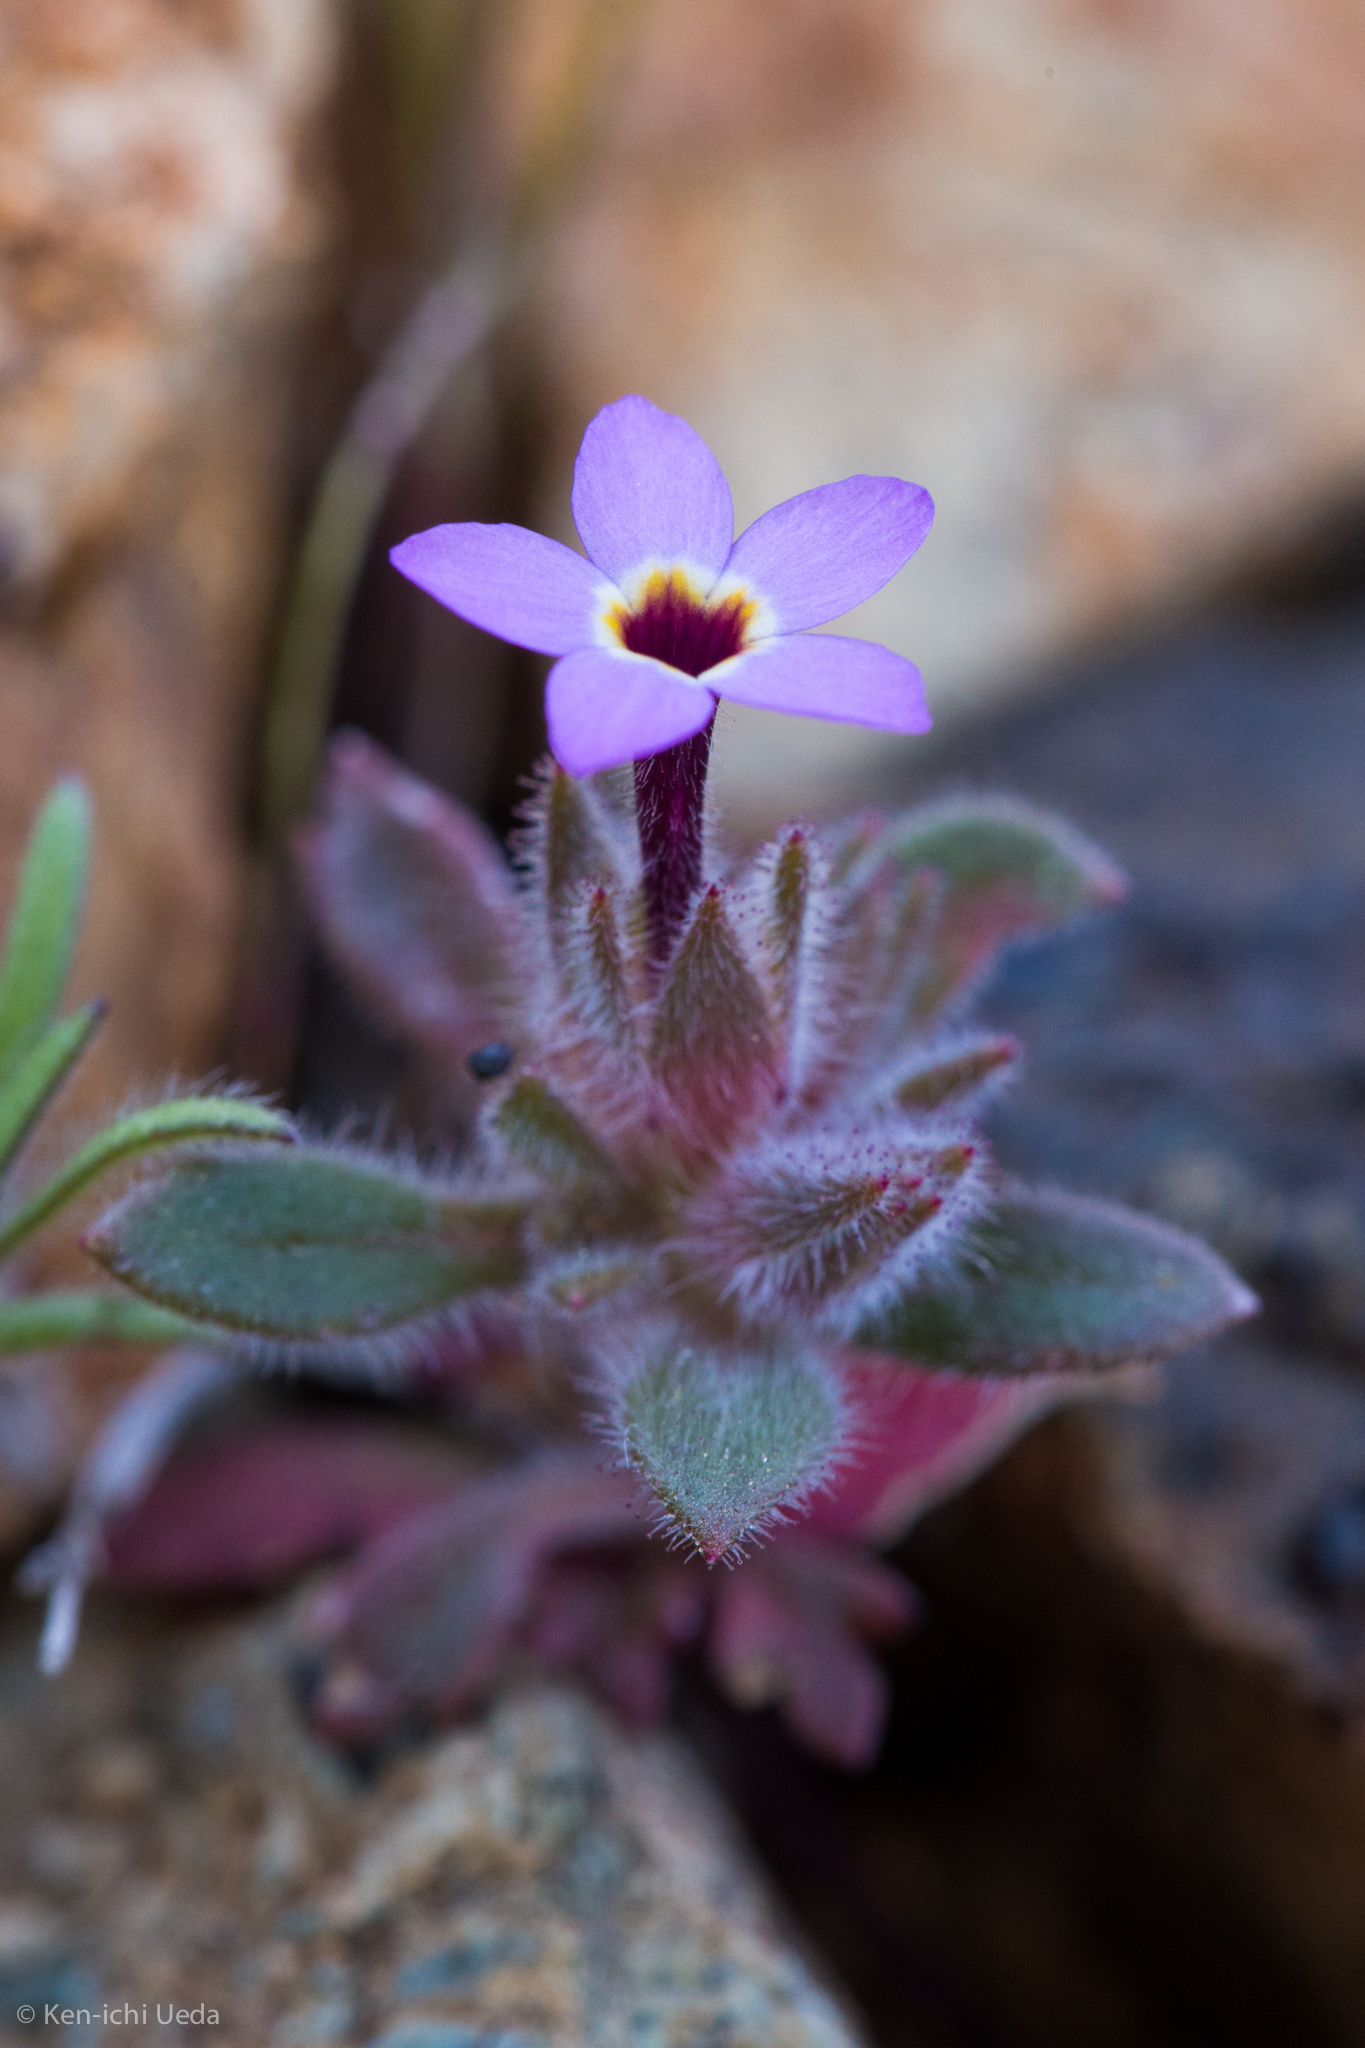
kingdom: Plantae
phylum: Tracheophyta
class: Magnoliopsida
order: Ericales
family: Polemoniaceae
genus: Collomia
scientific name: Collomia diversifolia
